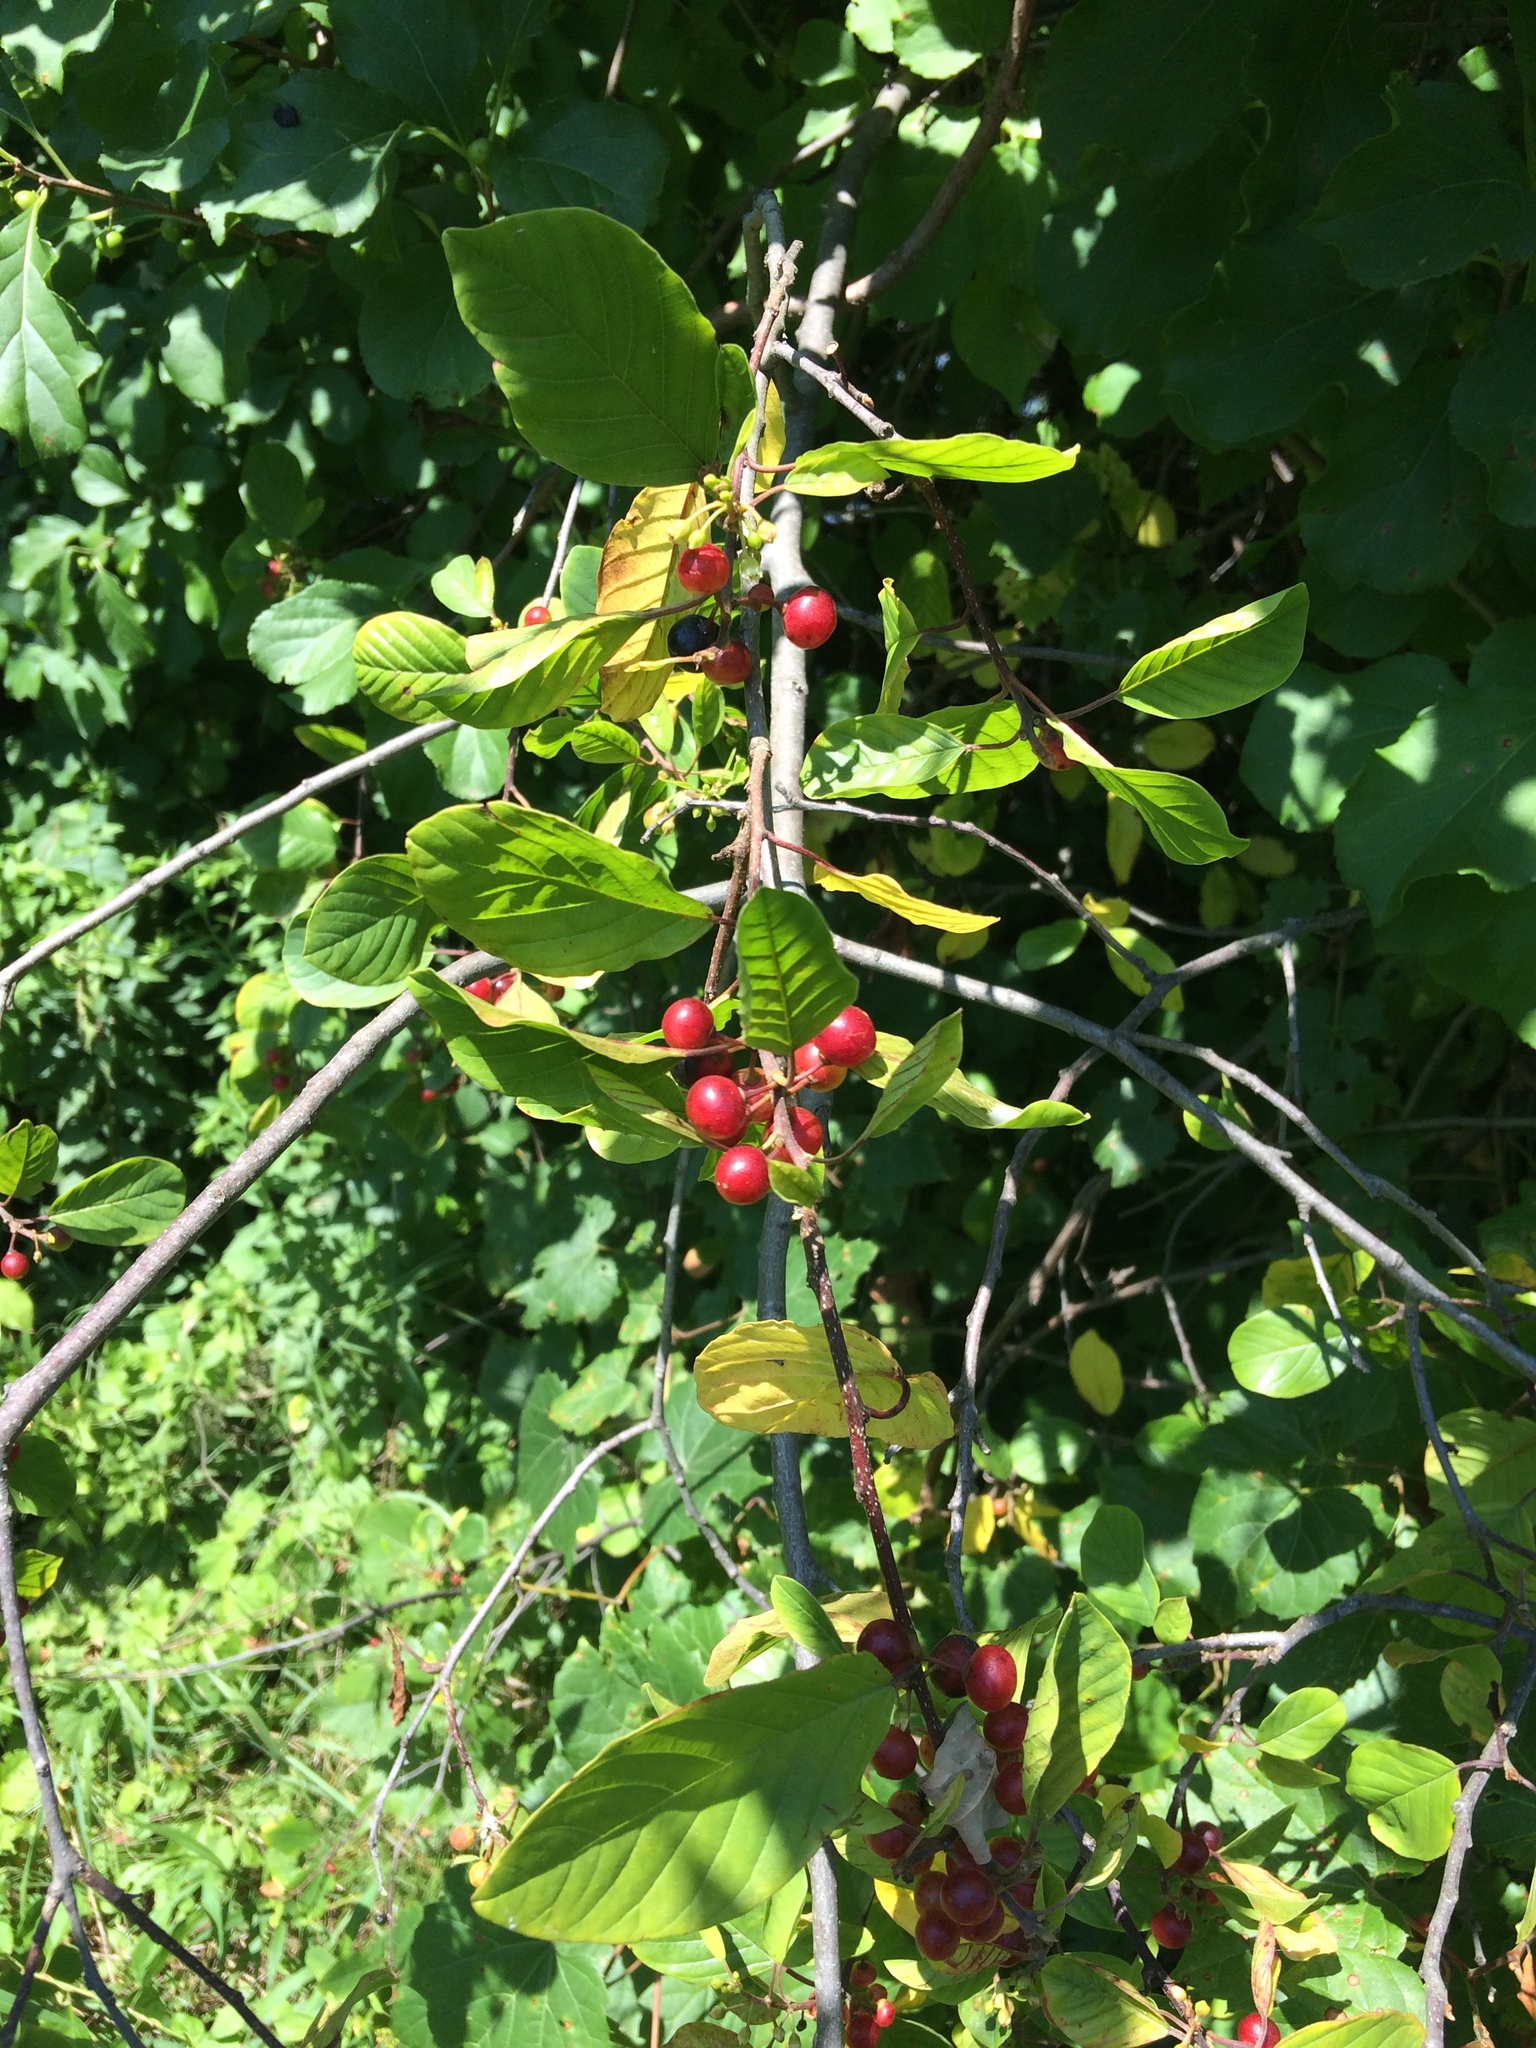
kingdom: Plantae
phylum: Tracheophyta
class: Magnoliopsida
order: Rosales
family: Rhamnaceae
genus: Frangula
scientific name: Frangula alnus
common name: Alder buckthorn
